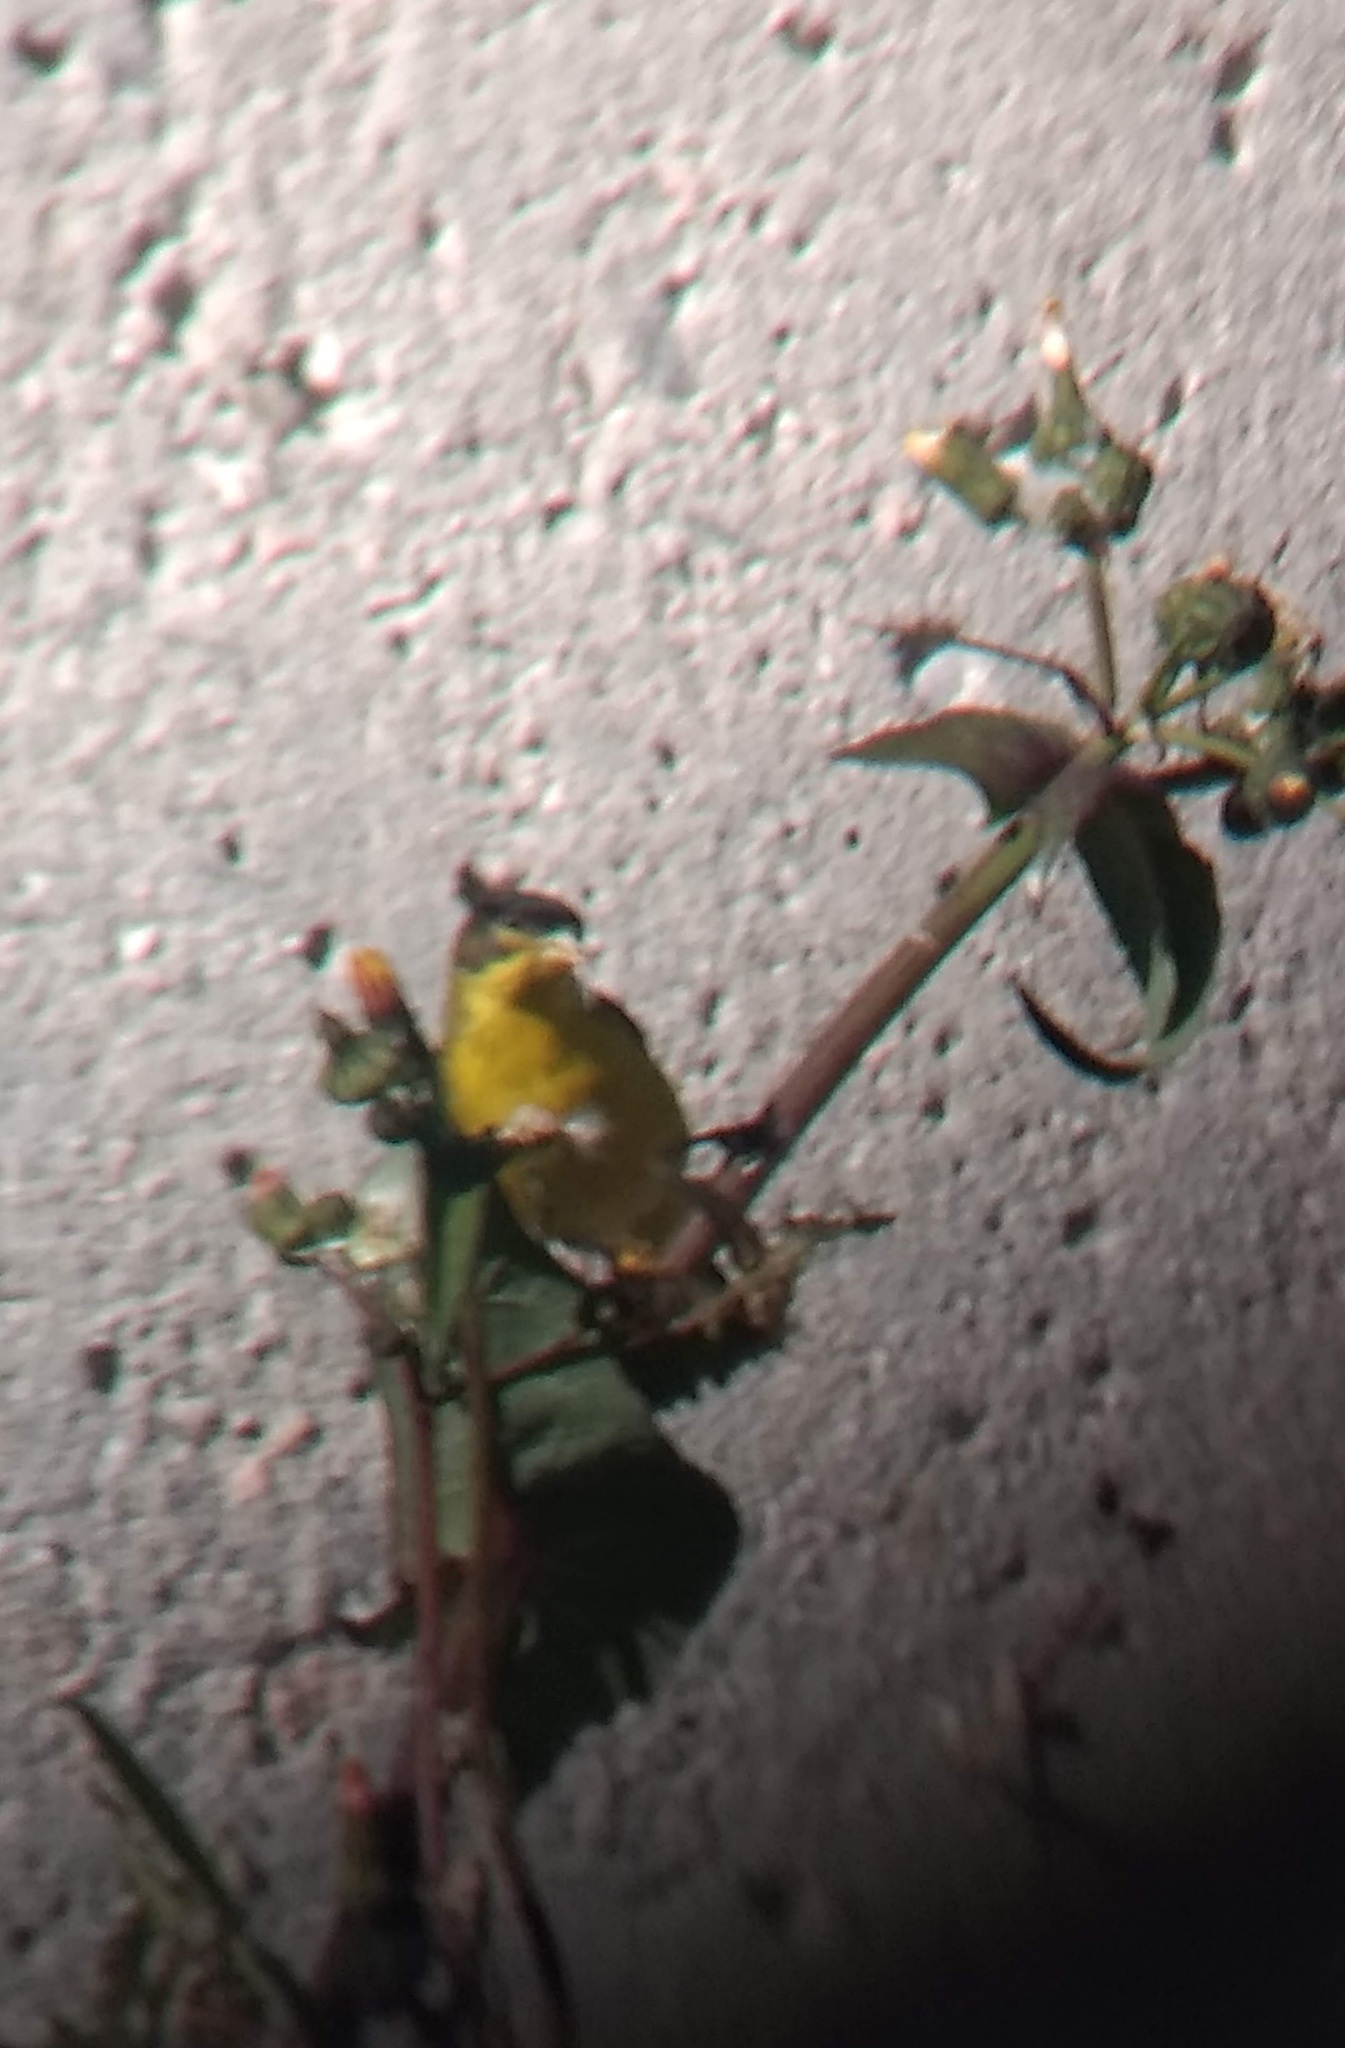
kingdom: Animalia
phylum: Chordata
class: Aves
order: Passeriformes
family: Fringillidae
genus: Spinus
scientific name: Spinus psaltria
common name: Lesser goldfinch
